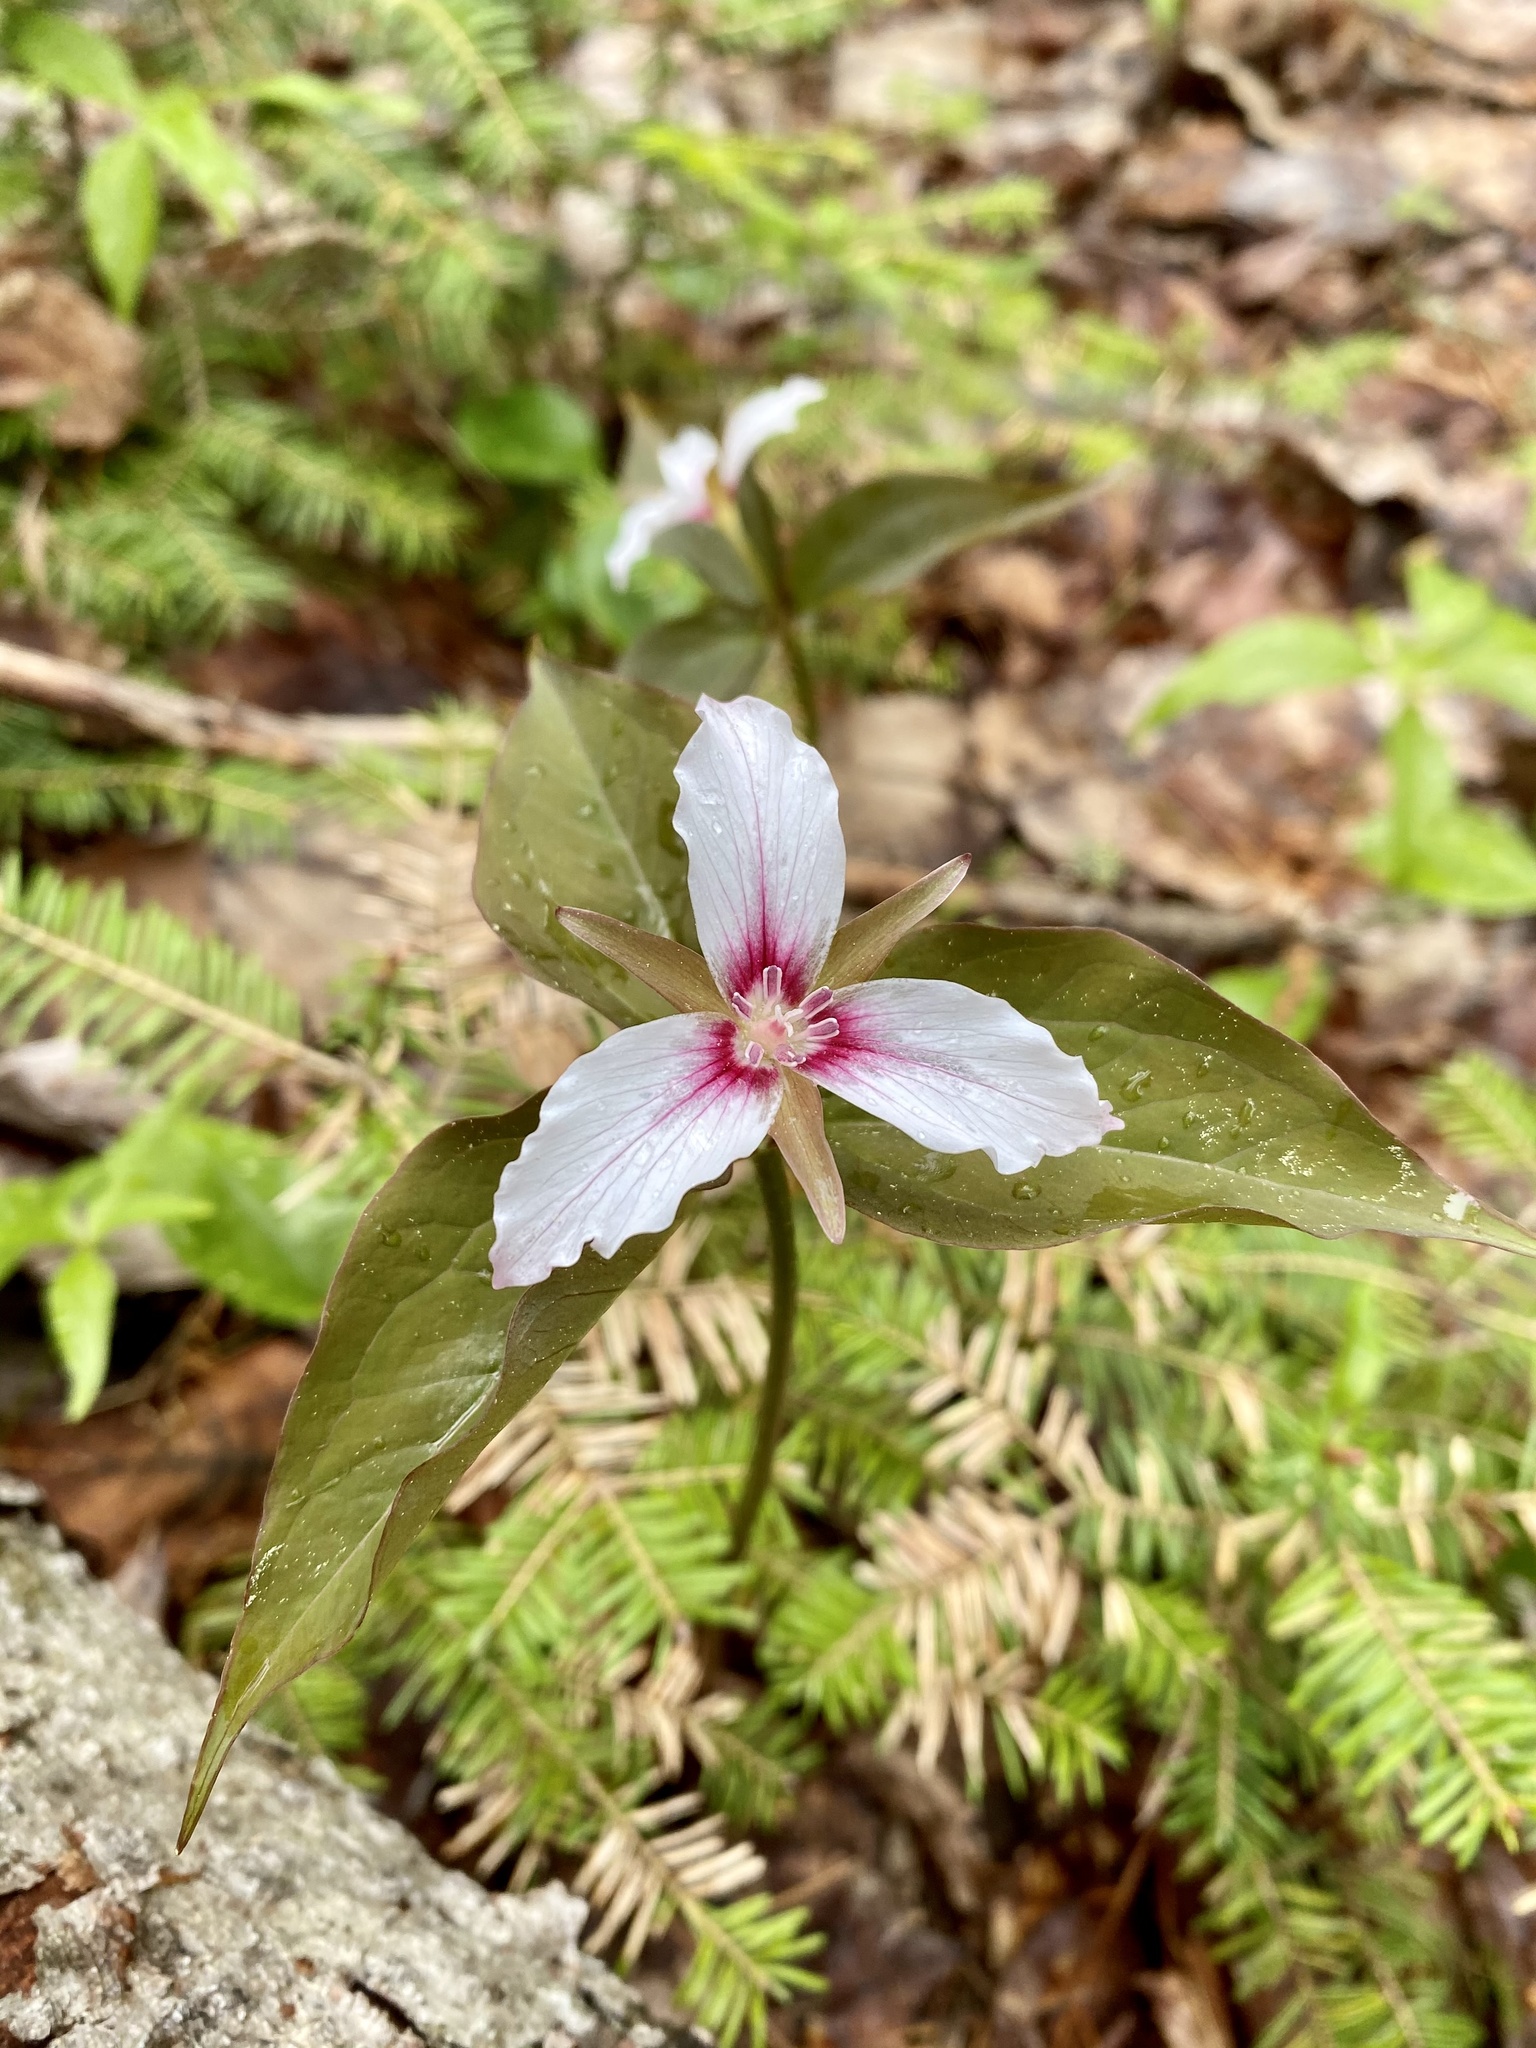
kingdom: Plantae
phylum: Tracheophyta
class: Liliopsida
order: Liliales
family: Melanthiaceae
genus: Trillium
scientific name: Trillium undulatum
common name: Paint trillium
